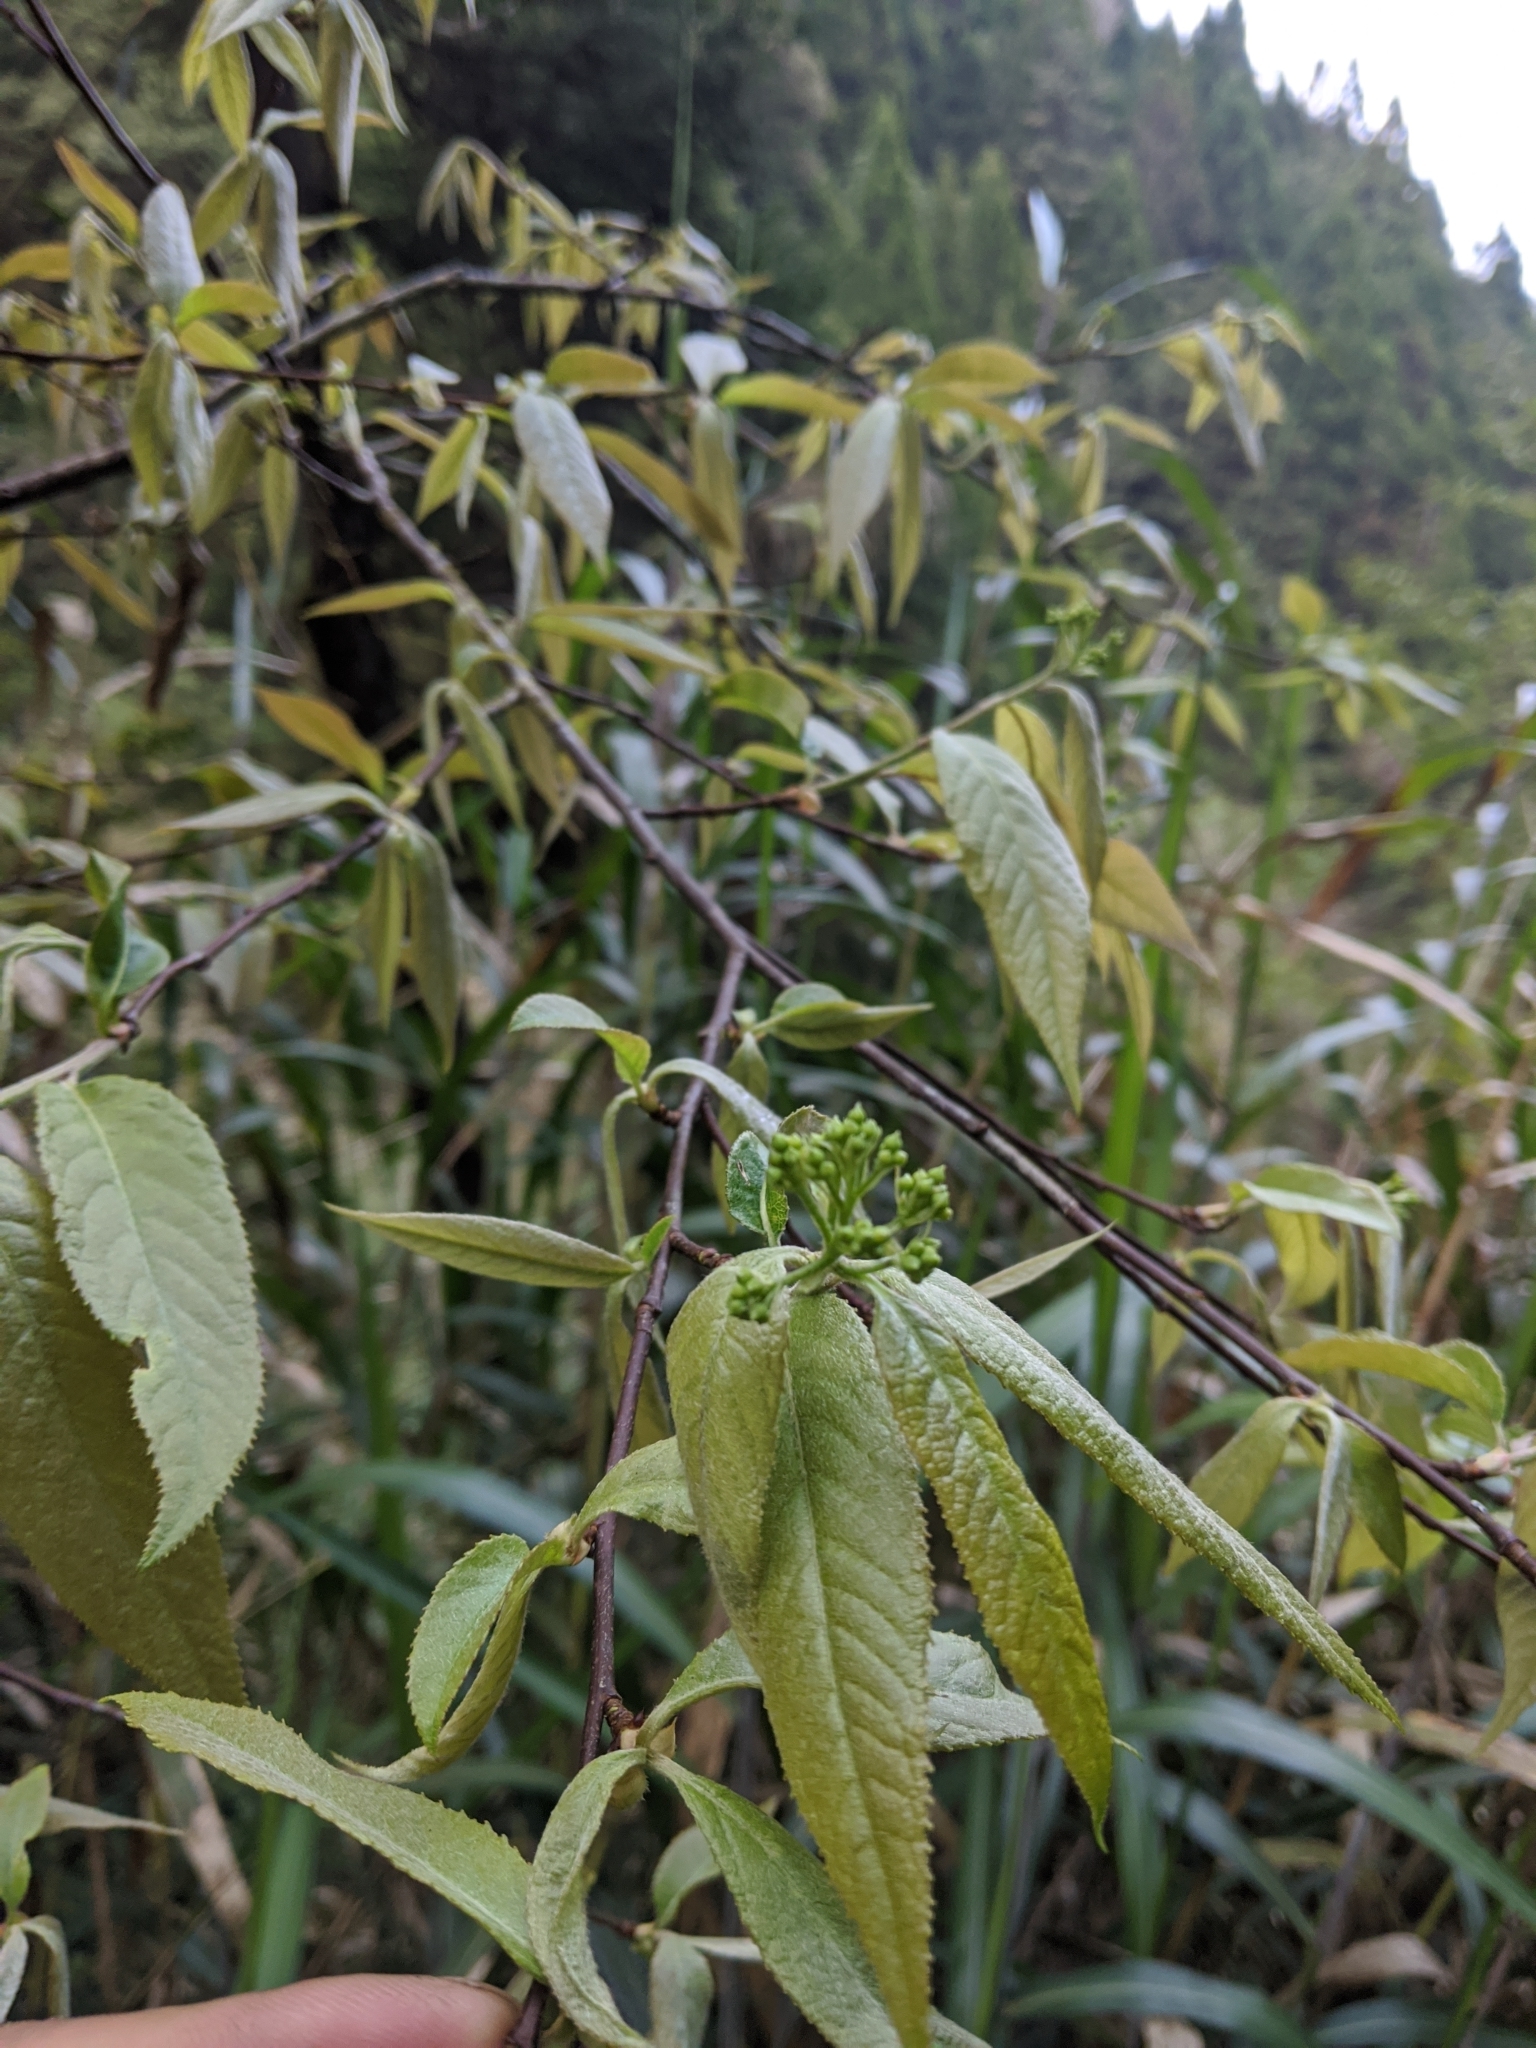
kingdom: Plantae
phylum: Tracheophyta
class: Magnoliopsida
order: Rosales
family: Rosaceae
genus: Pourthiaea
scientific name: Pourthiaea beauverdiana
